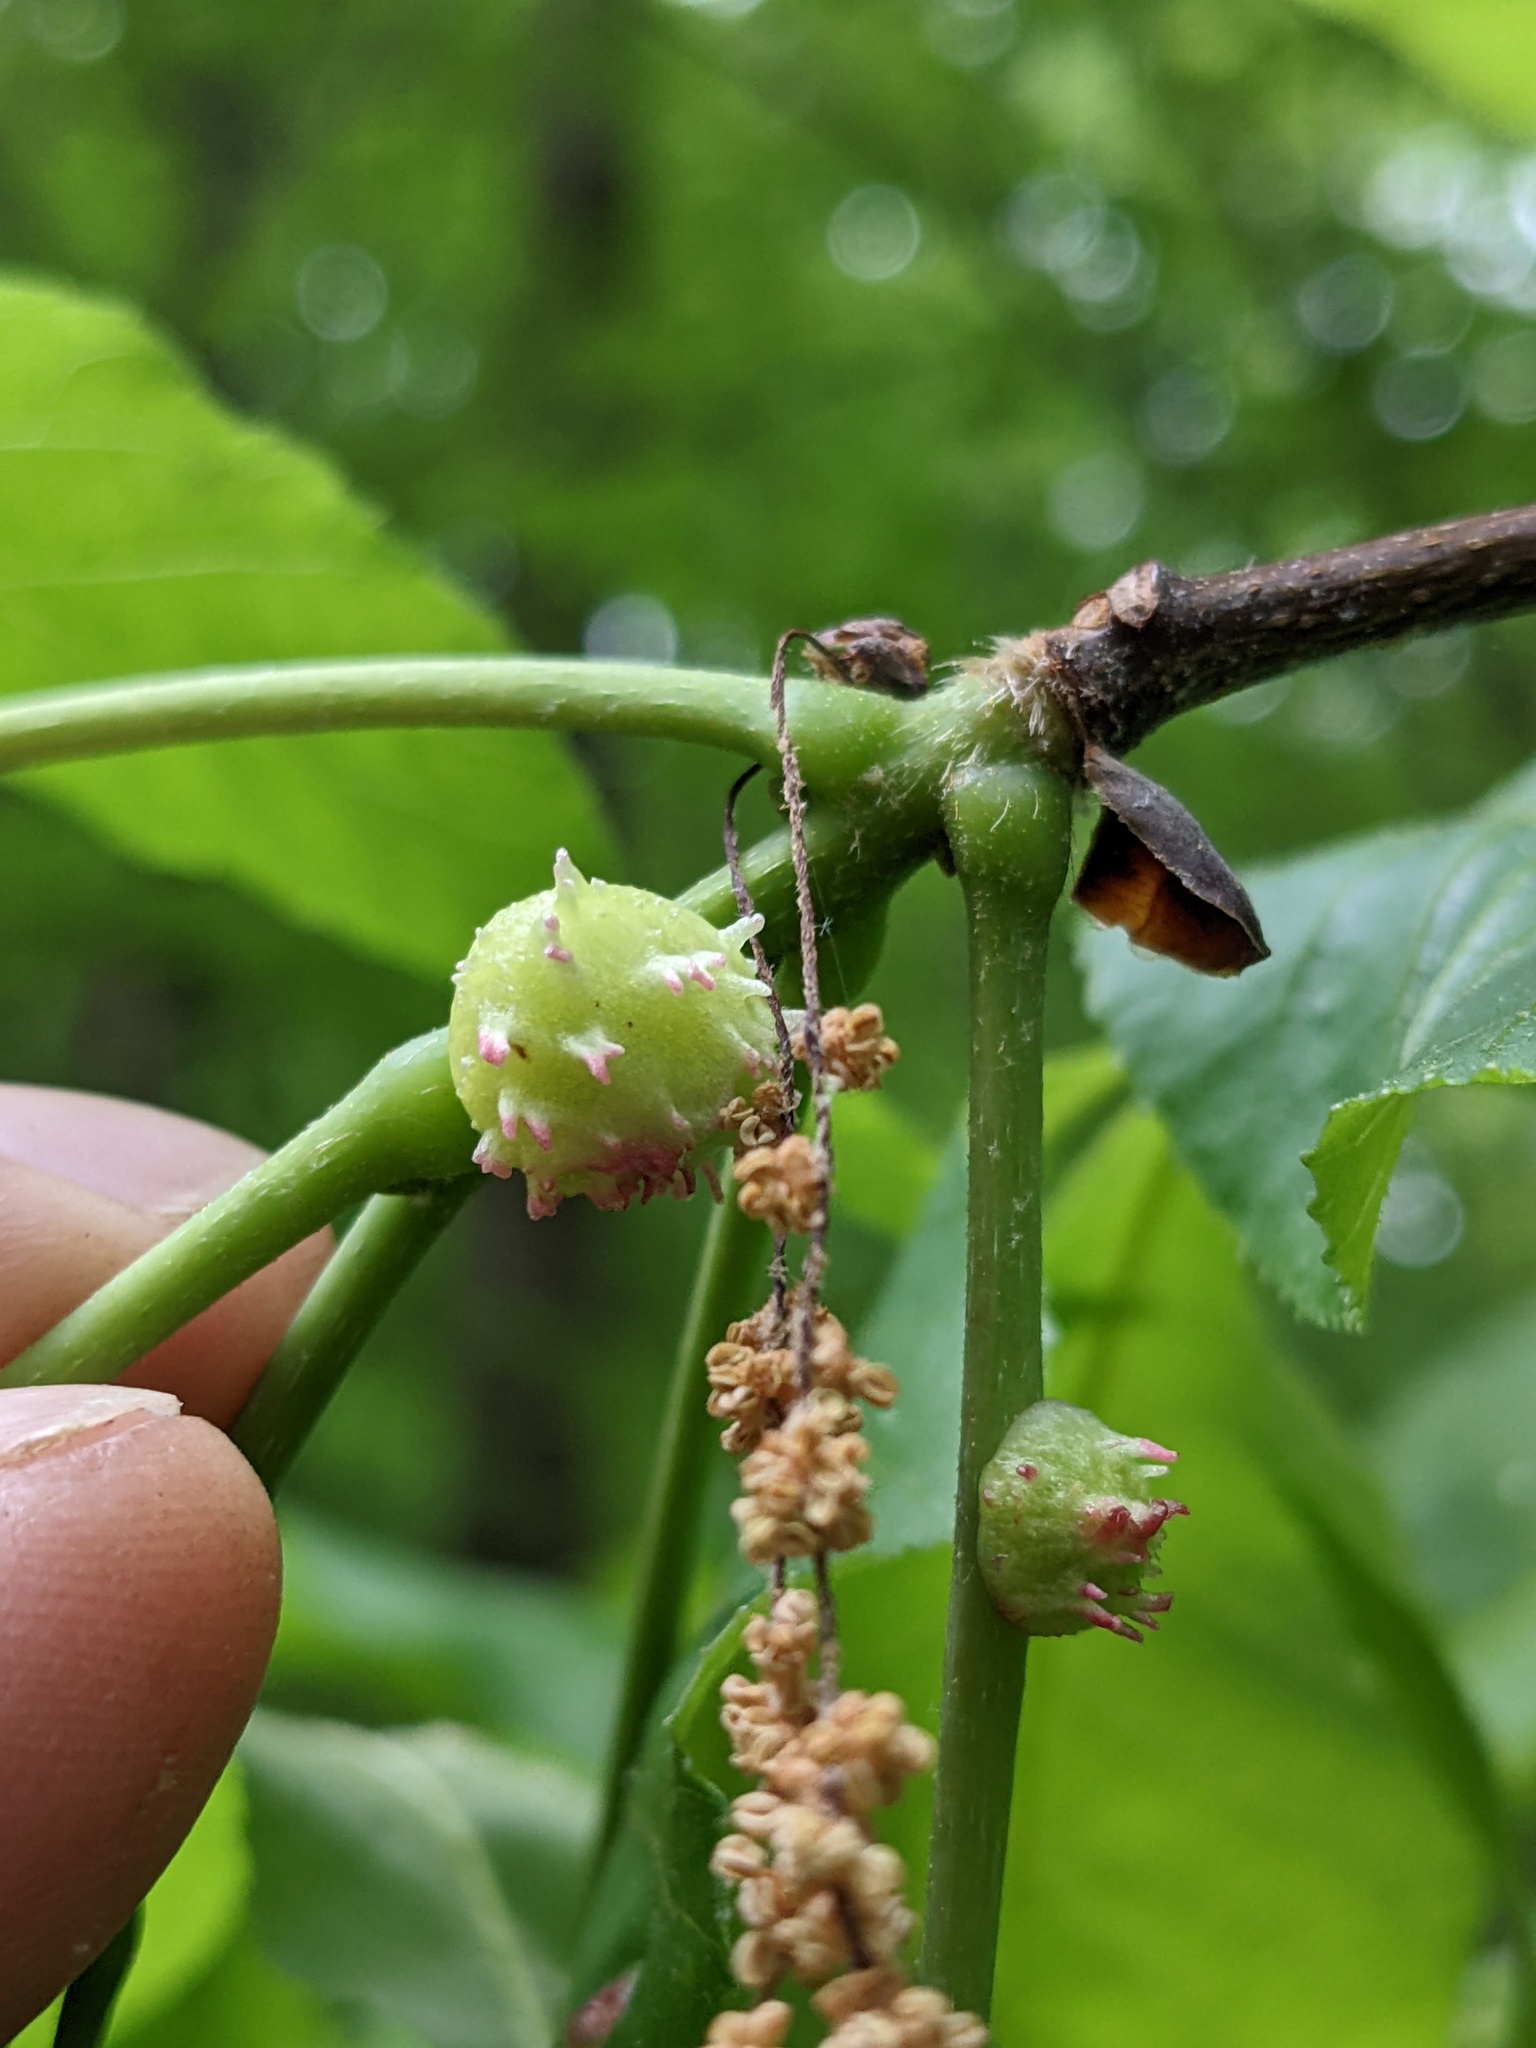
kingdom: Animalia
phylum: Arthropoda
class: Insecta
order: Hemiptera
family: Phylloxeridae
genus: Phylloxera
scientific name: Phylloxera spinosa
